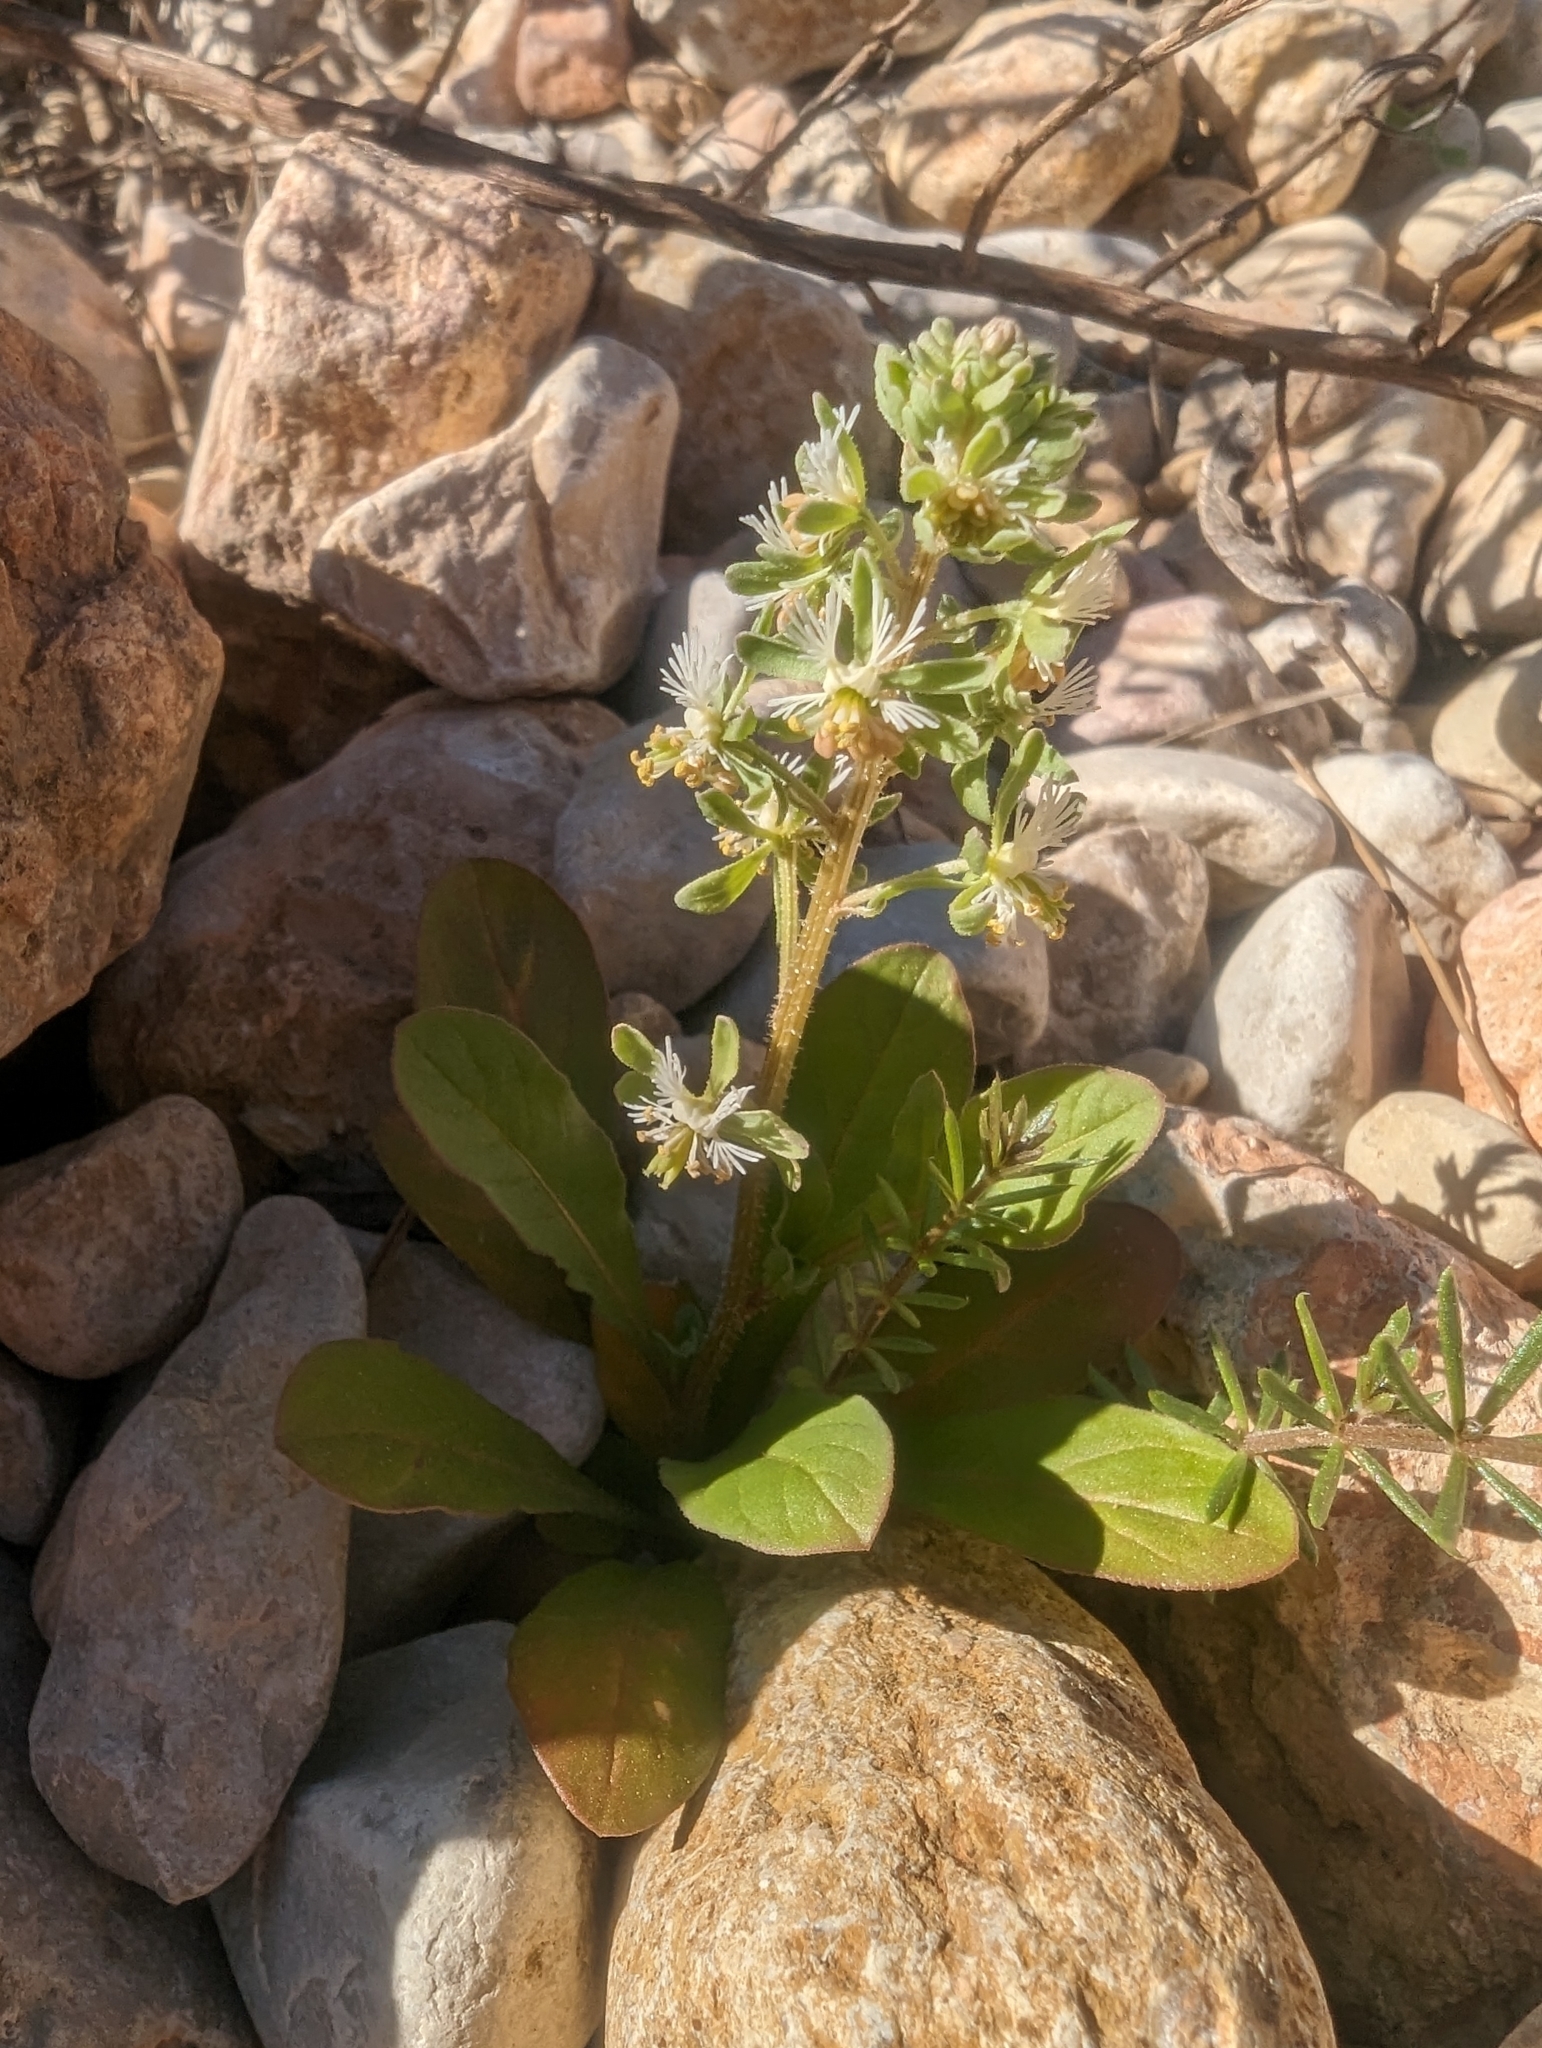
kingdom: Plantae
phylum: Tracheophyta
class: Magnoliopsida
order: Brassicales
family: Resedaceae
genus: Reseda
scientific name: Reseda phyteuma
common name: Corn mignonette
